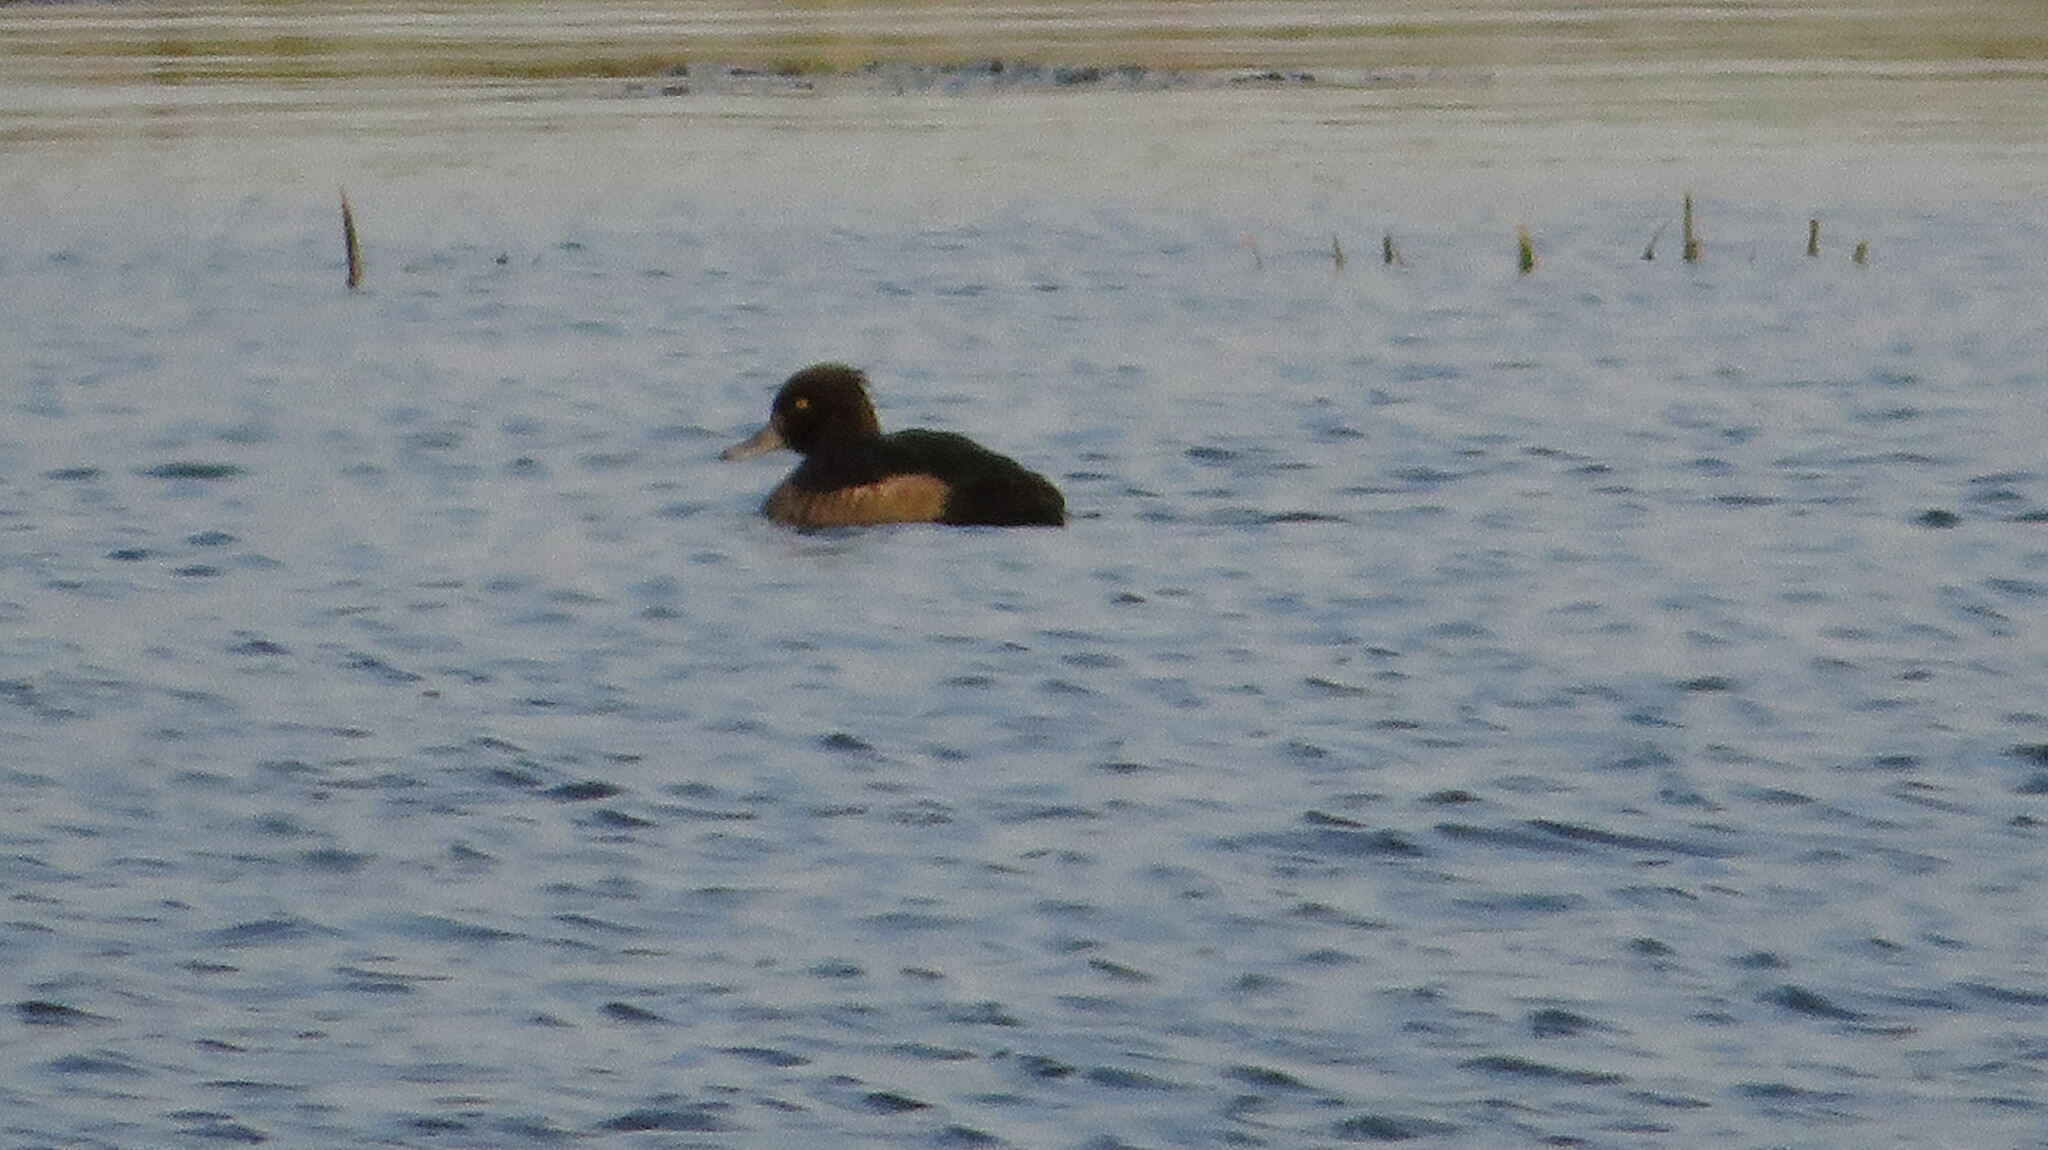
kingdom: Animalia
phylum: Chordata
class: Aves
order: Anseriformes
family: Anatidae
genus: Aythya
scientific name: Aythya fuligula
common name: Tufted duck
